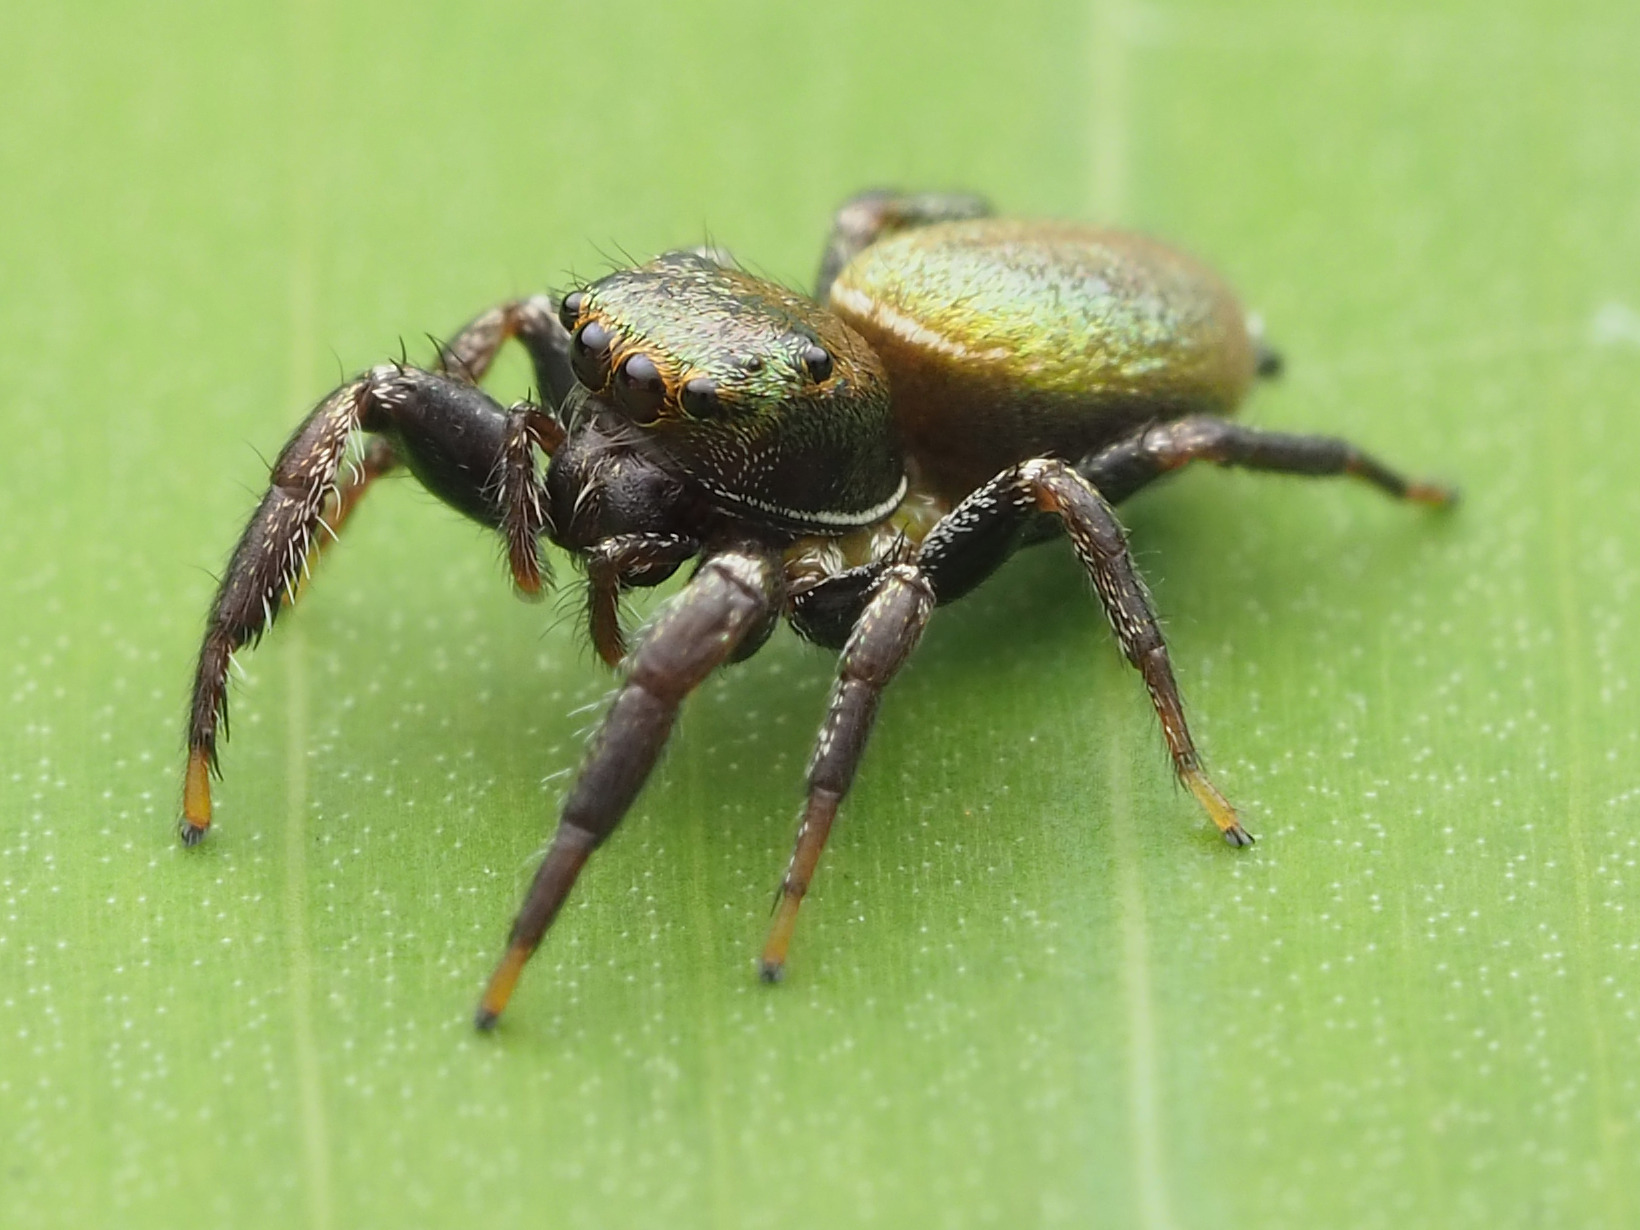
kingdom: Animalia
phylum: Arthropoda
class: Arachnida
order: Araneae
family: Salticidae
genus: Messua
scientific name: Messua limbata
